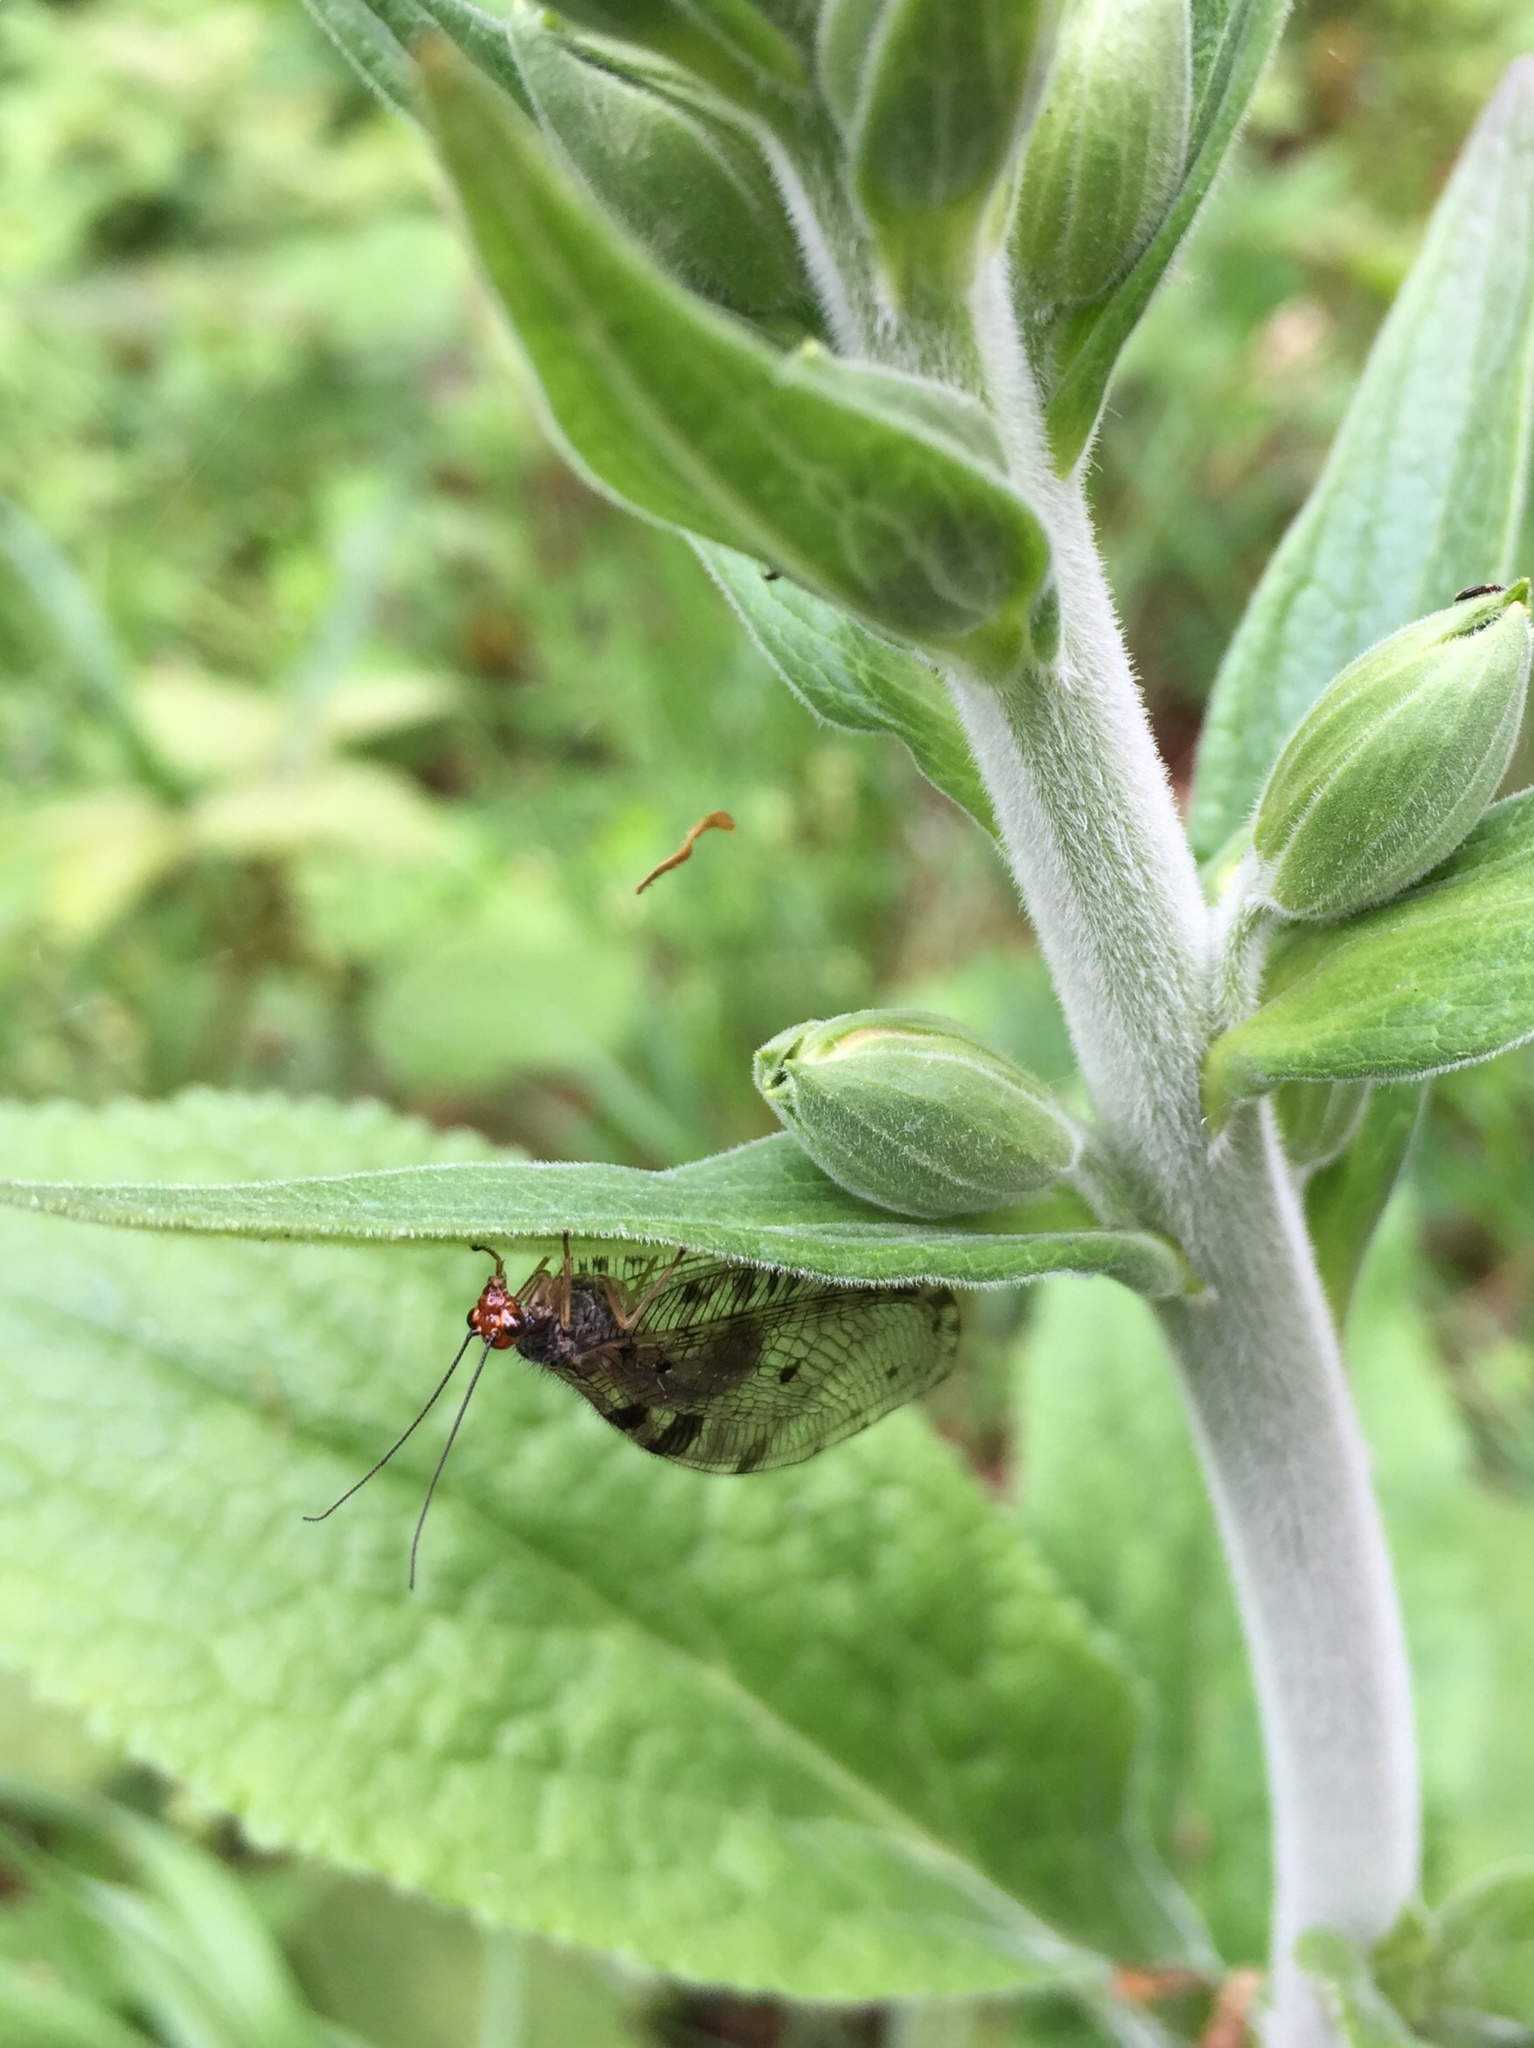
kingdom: Animalia
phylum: Arthropoda
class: Insecta
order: Neuroptera
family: Osmylidae
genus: Osmylus
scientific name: Osmylus fulvicephalus
